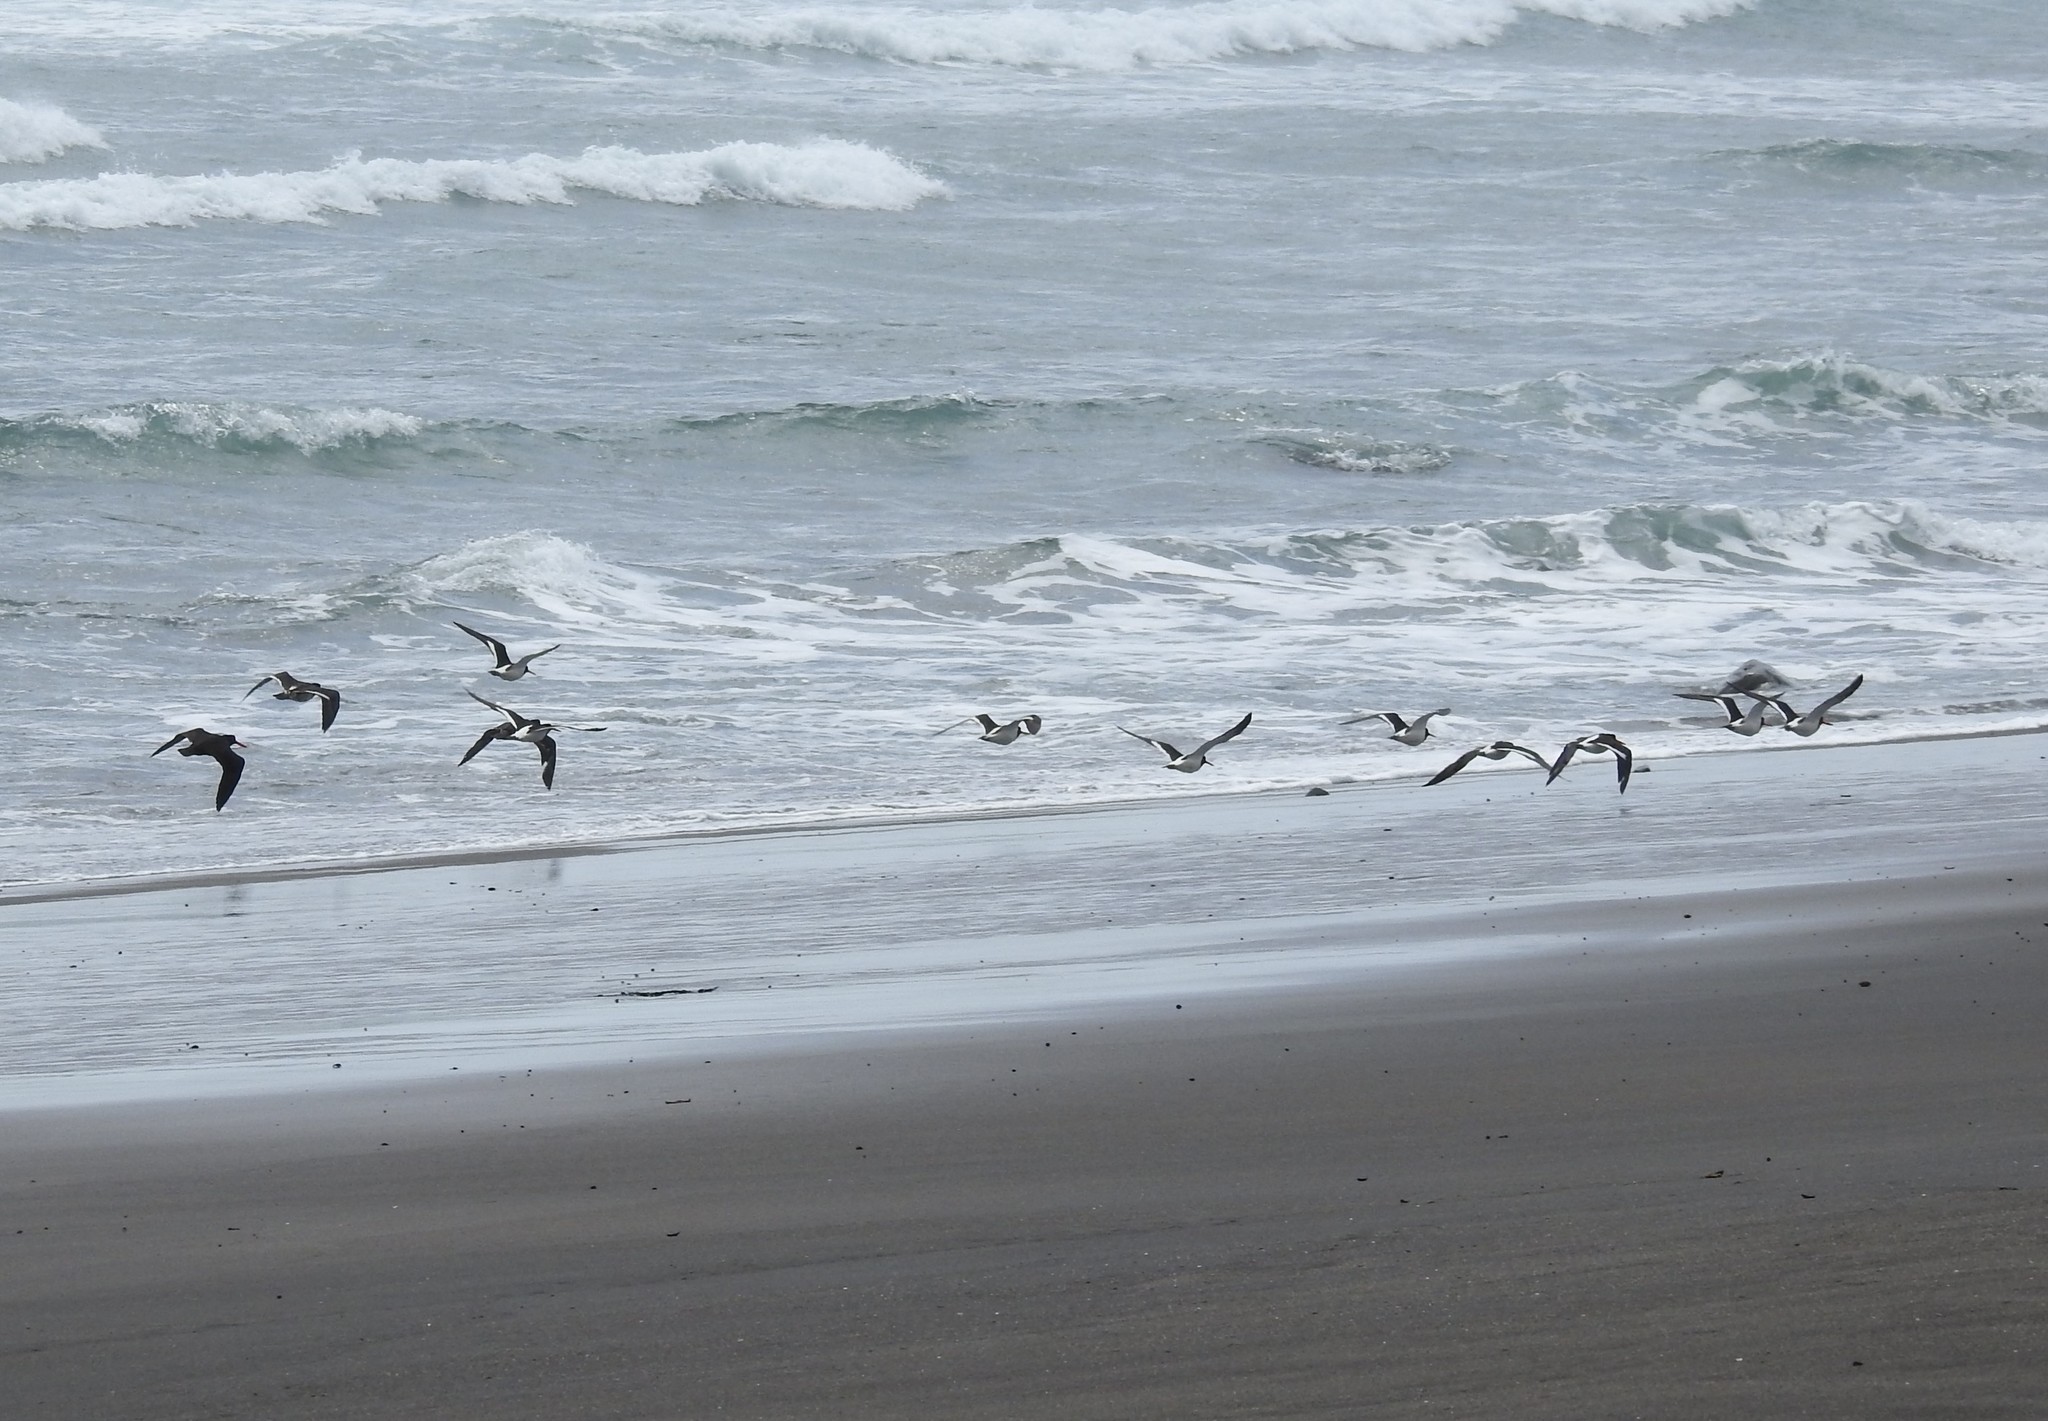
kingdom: Animalia
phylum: Chordata
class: Aves
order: Charadriiformes
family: Haematopodidae
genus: Haematopus
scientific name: Haematopus finschi
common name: South island oystercatcher
